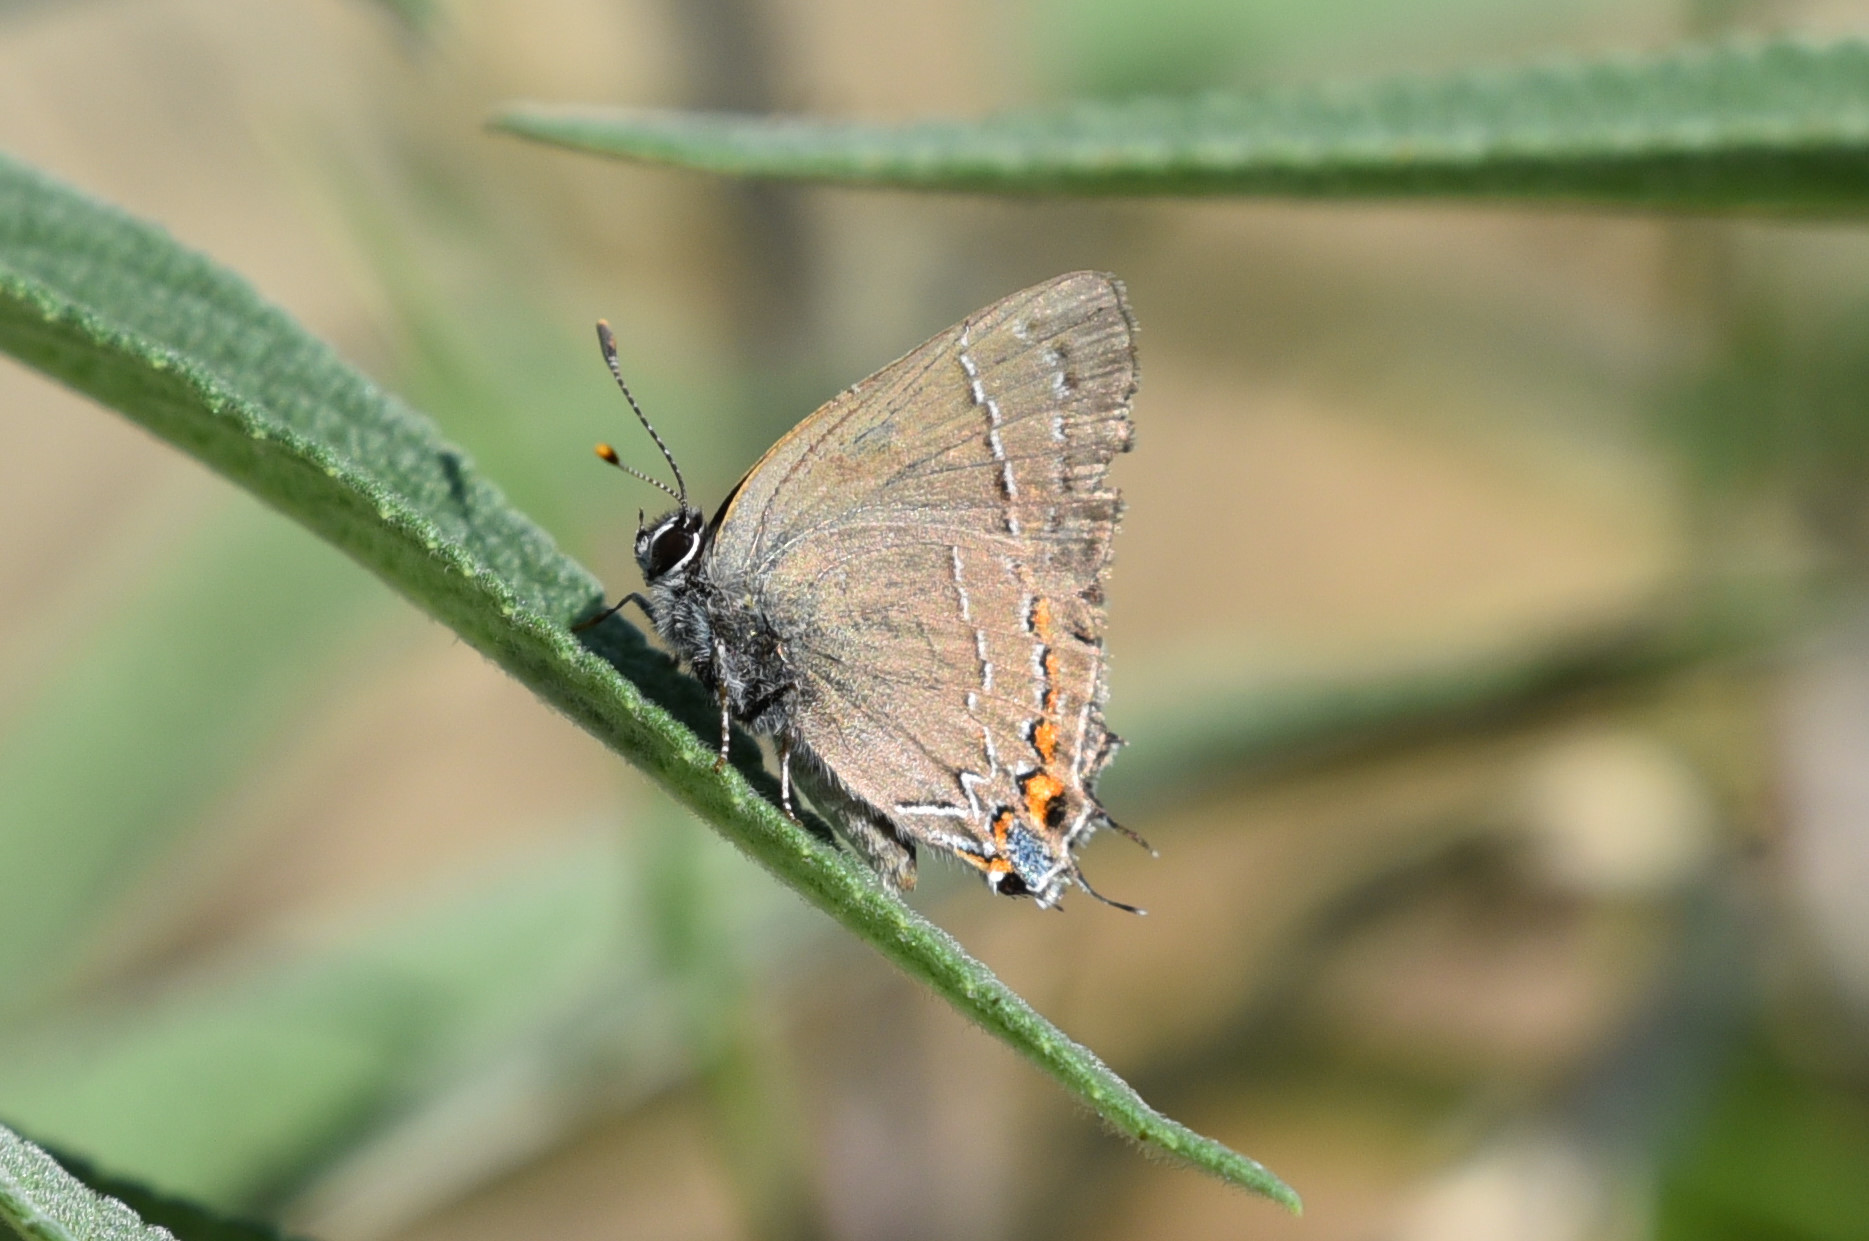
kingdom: Animalia
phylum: Arthropoda
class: Insecta
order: Lepidoptera
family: Lycaenidae
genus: Fixsenia
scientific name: Fixsenia favonius
